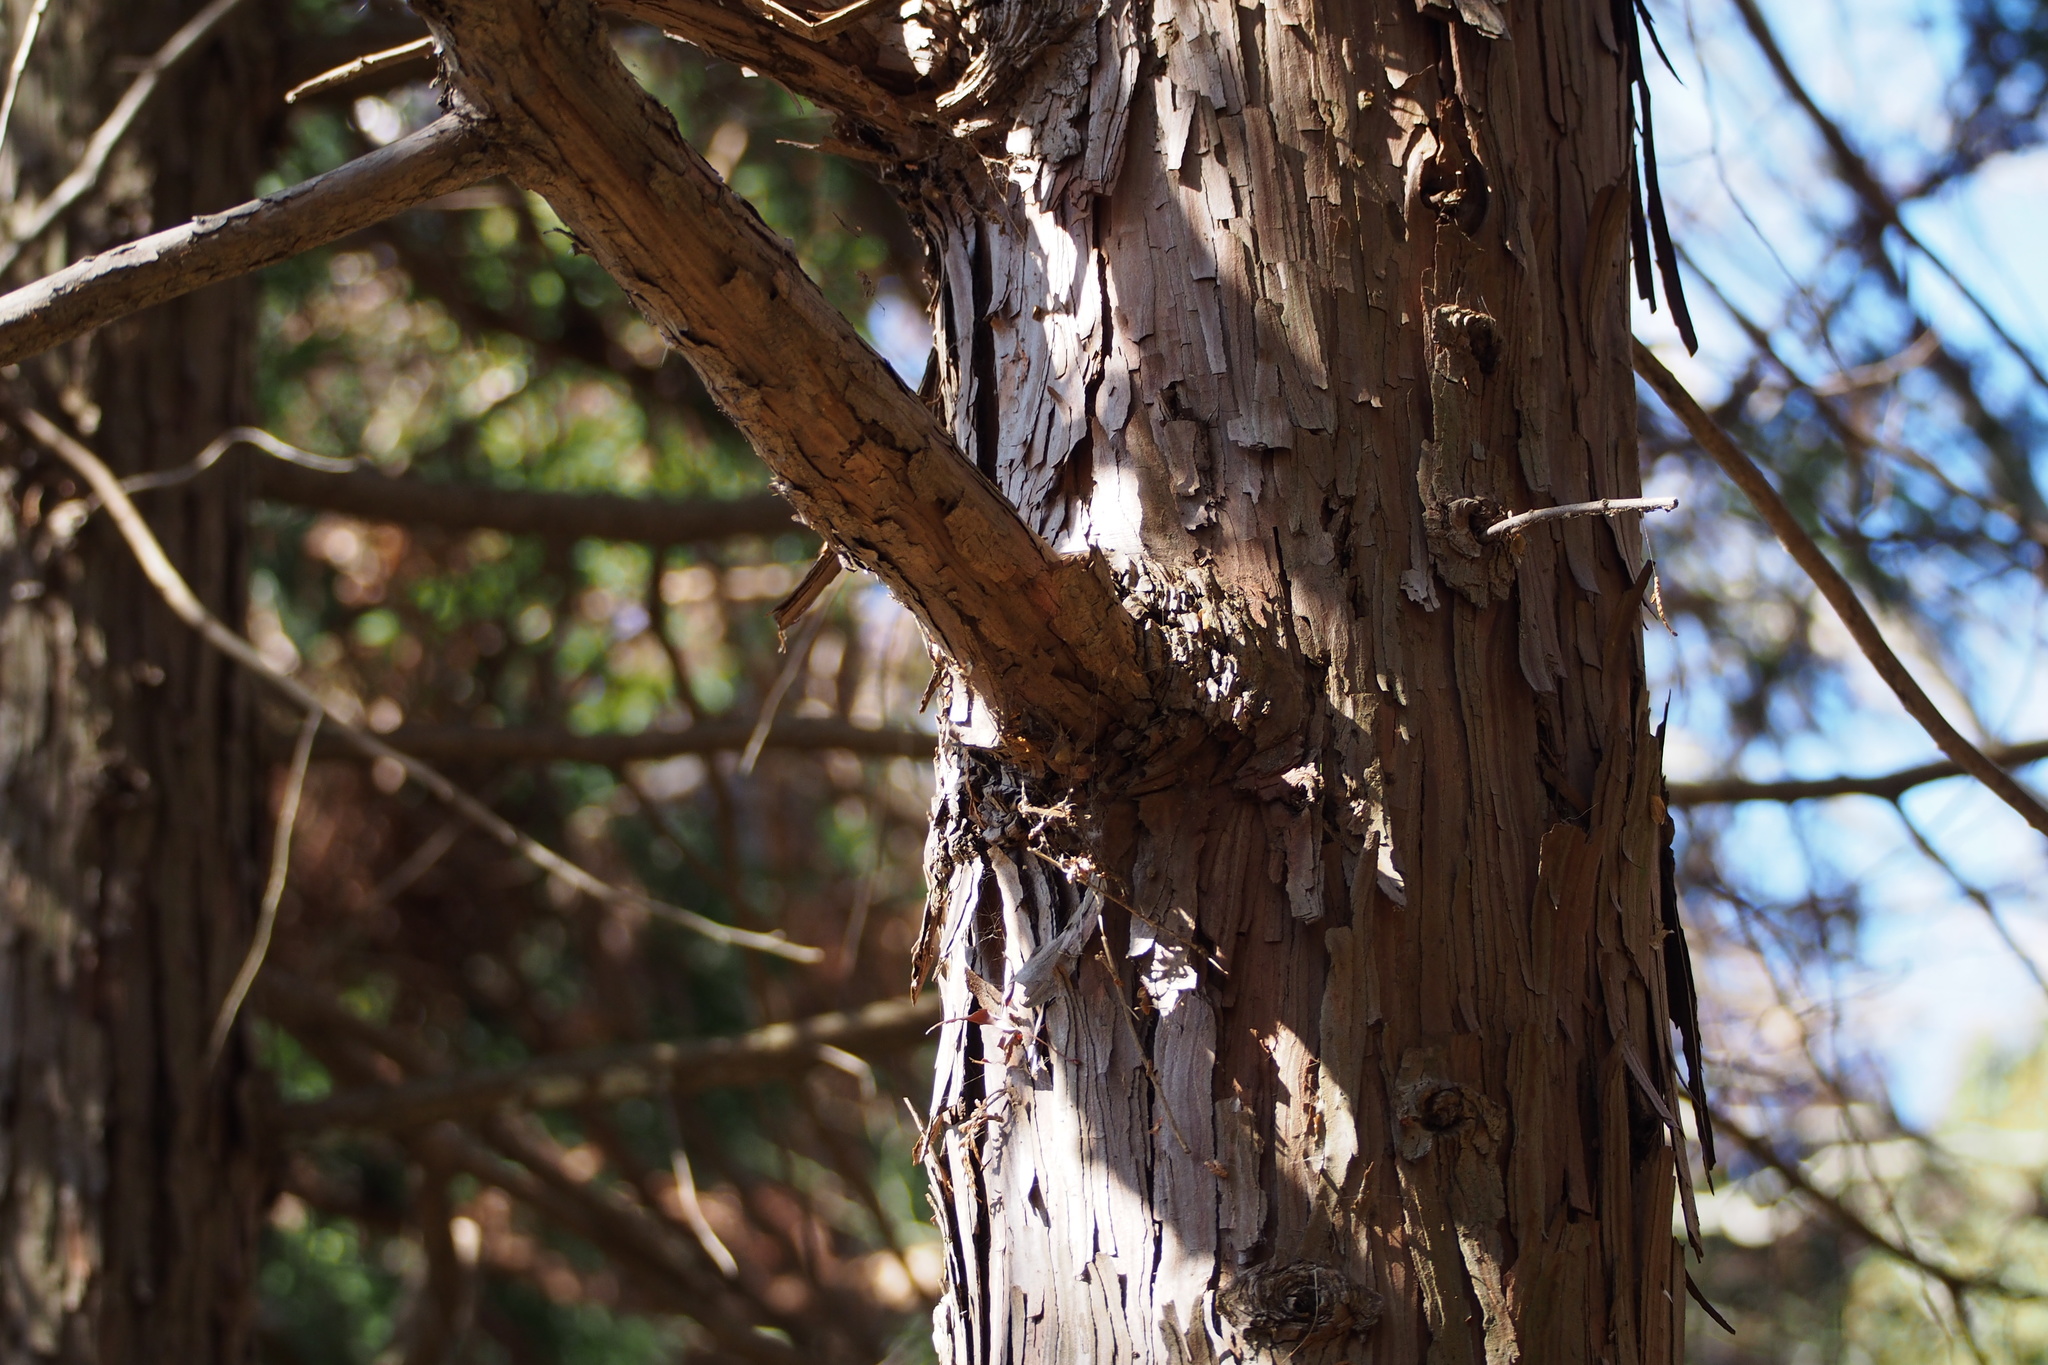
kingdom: Plantae
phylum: Tracheophyta
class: Pinopsida
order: Pinales
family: Cupressaceae
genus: Chamaecyparis
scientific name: Chamaecyparis obtusa
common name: Hinoki false cypress
